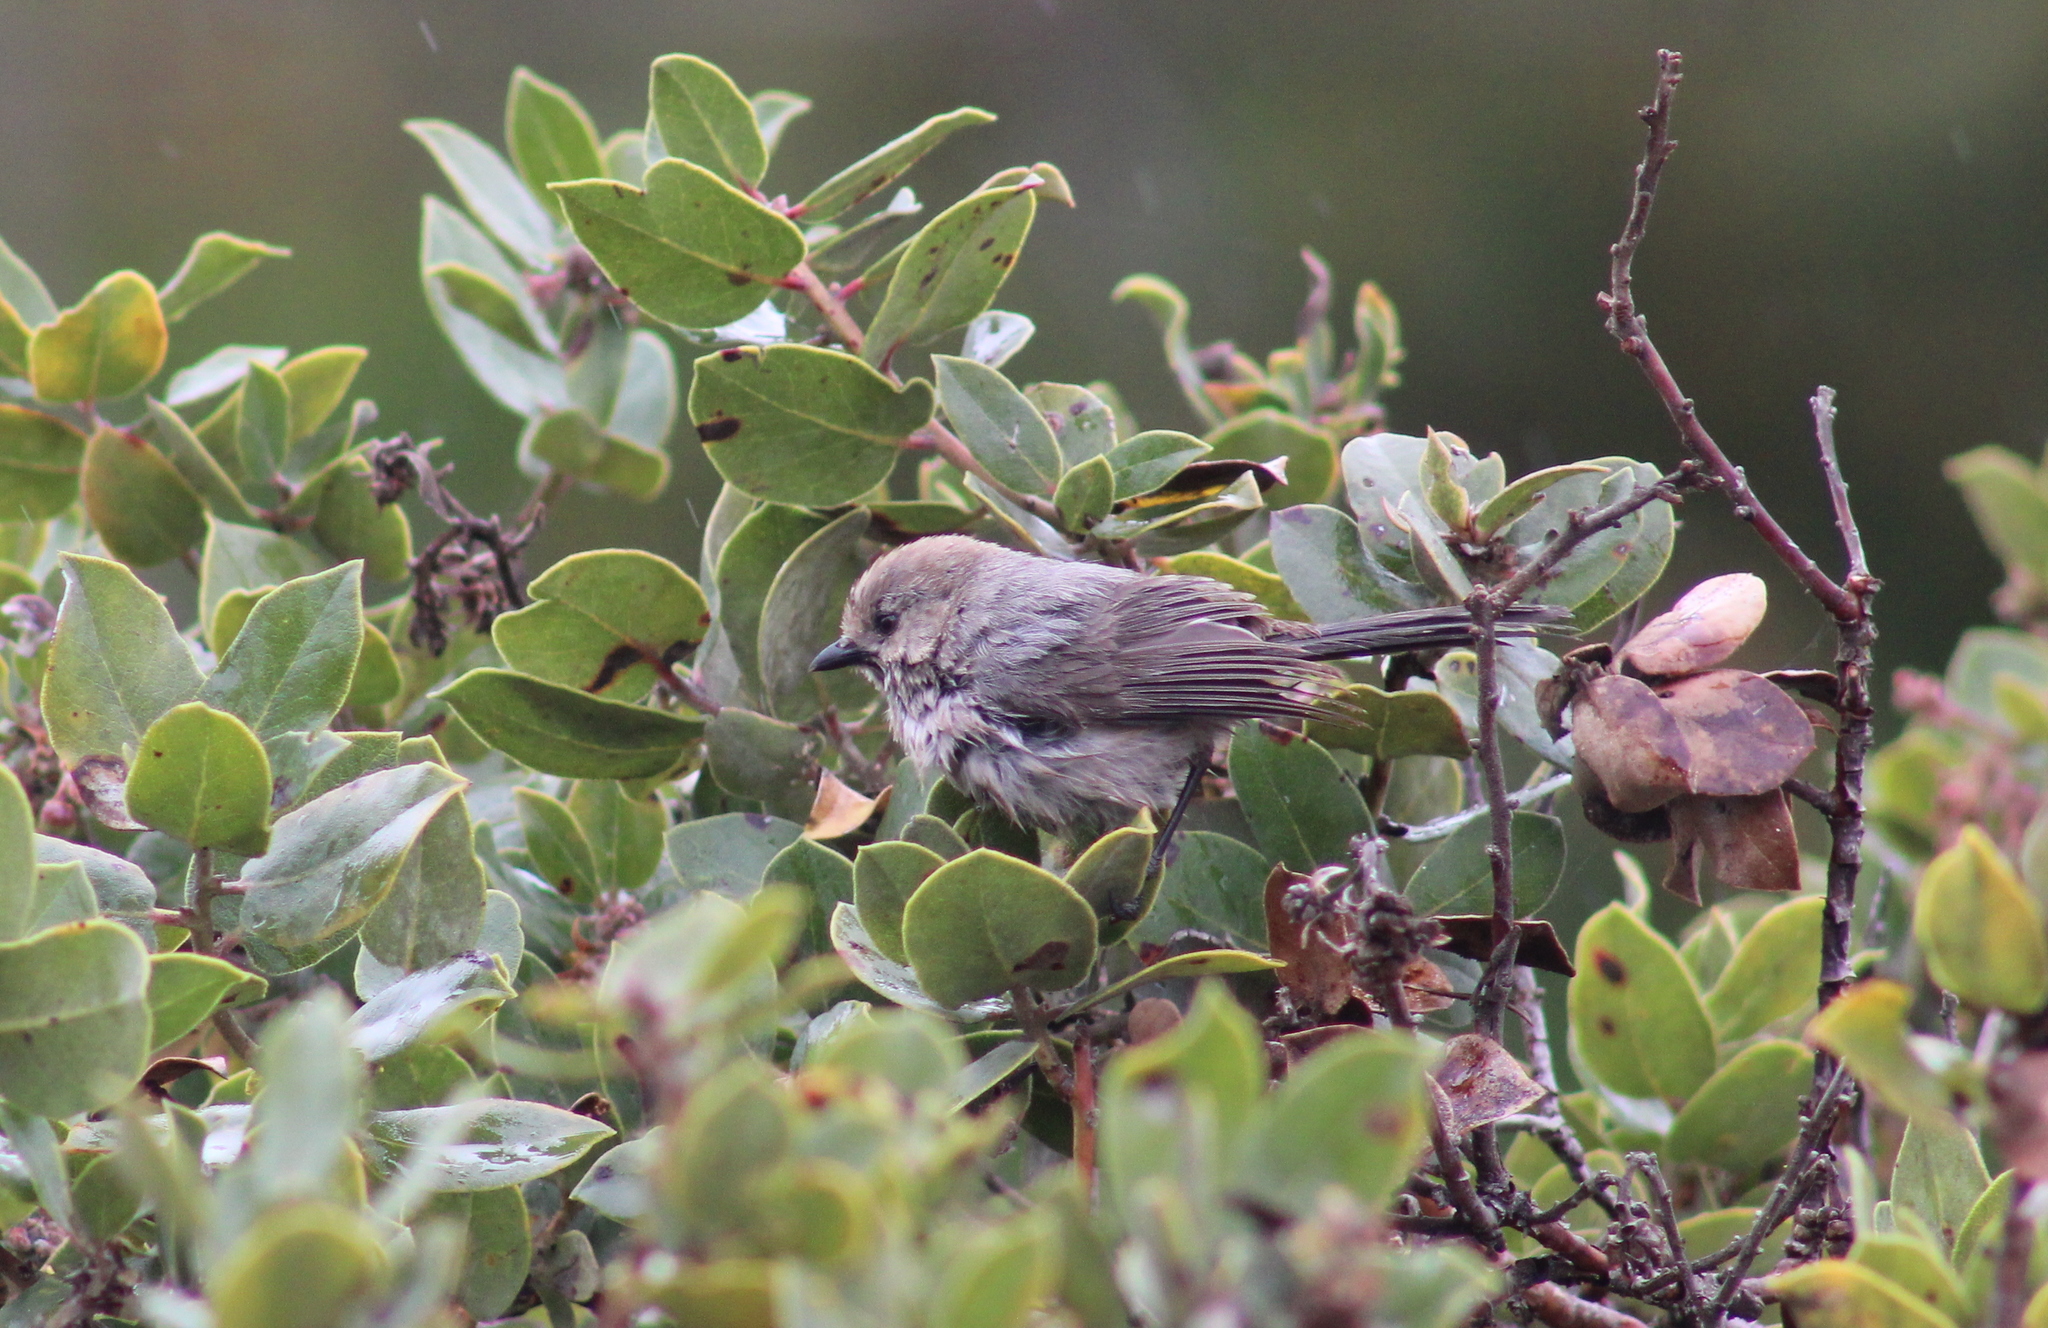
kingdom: Animalia
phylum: Chordata
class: Aves
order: Passeriformes
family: Aegithalidae
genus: Psaltriparus
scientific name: Psaltriparus minimus
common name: American bushtit
